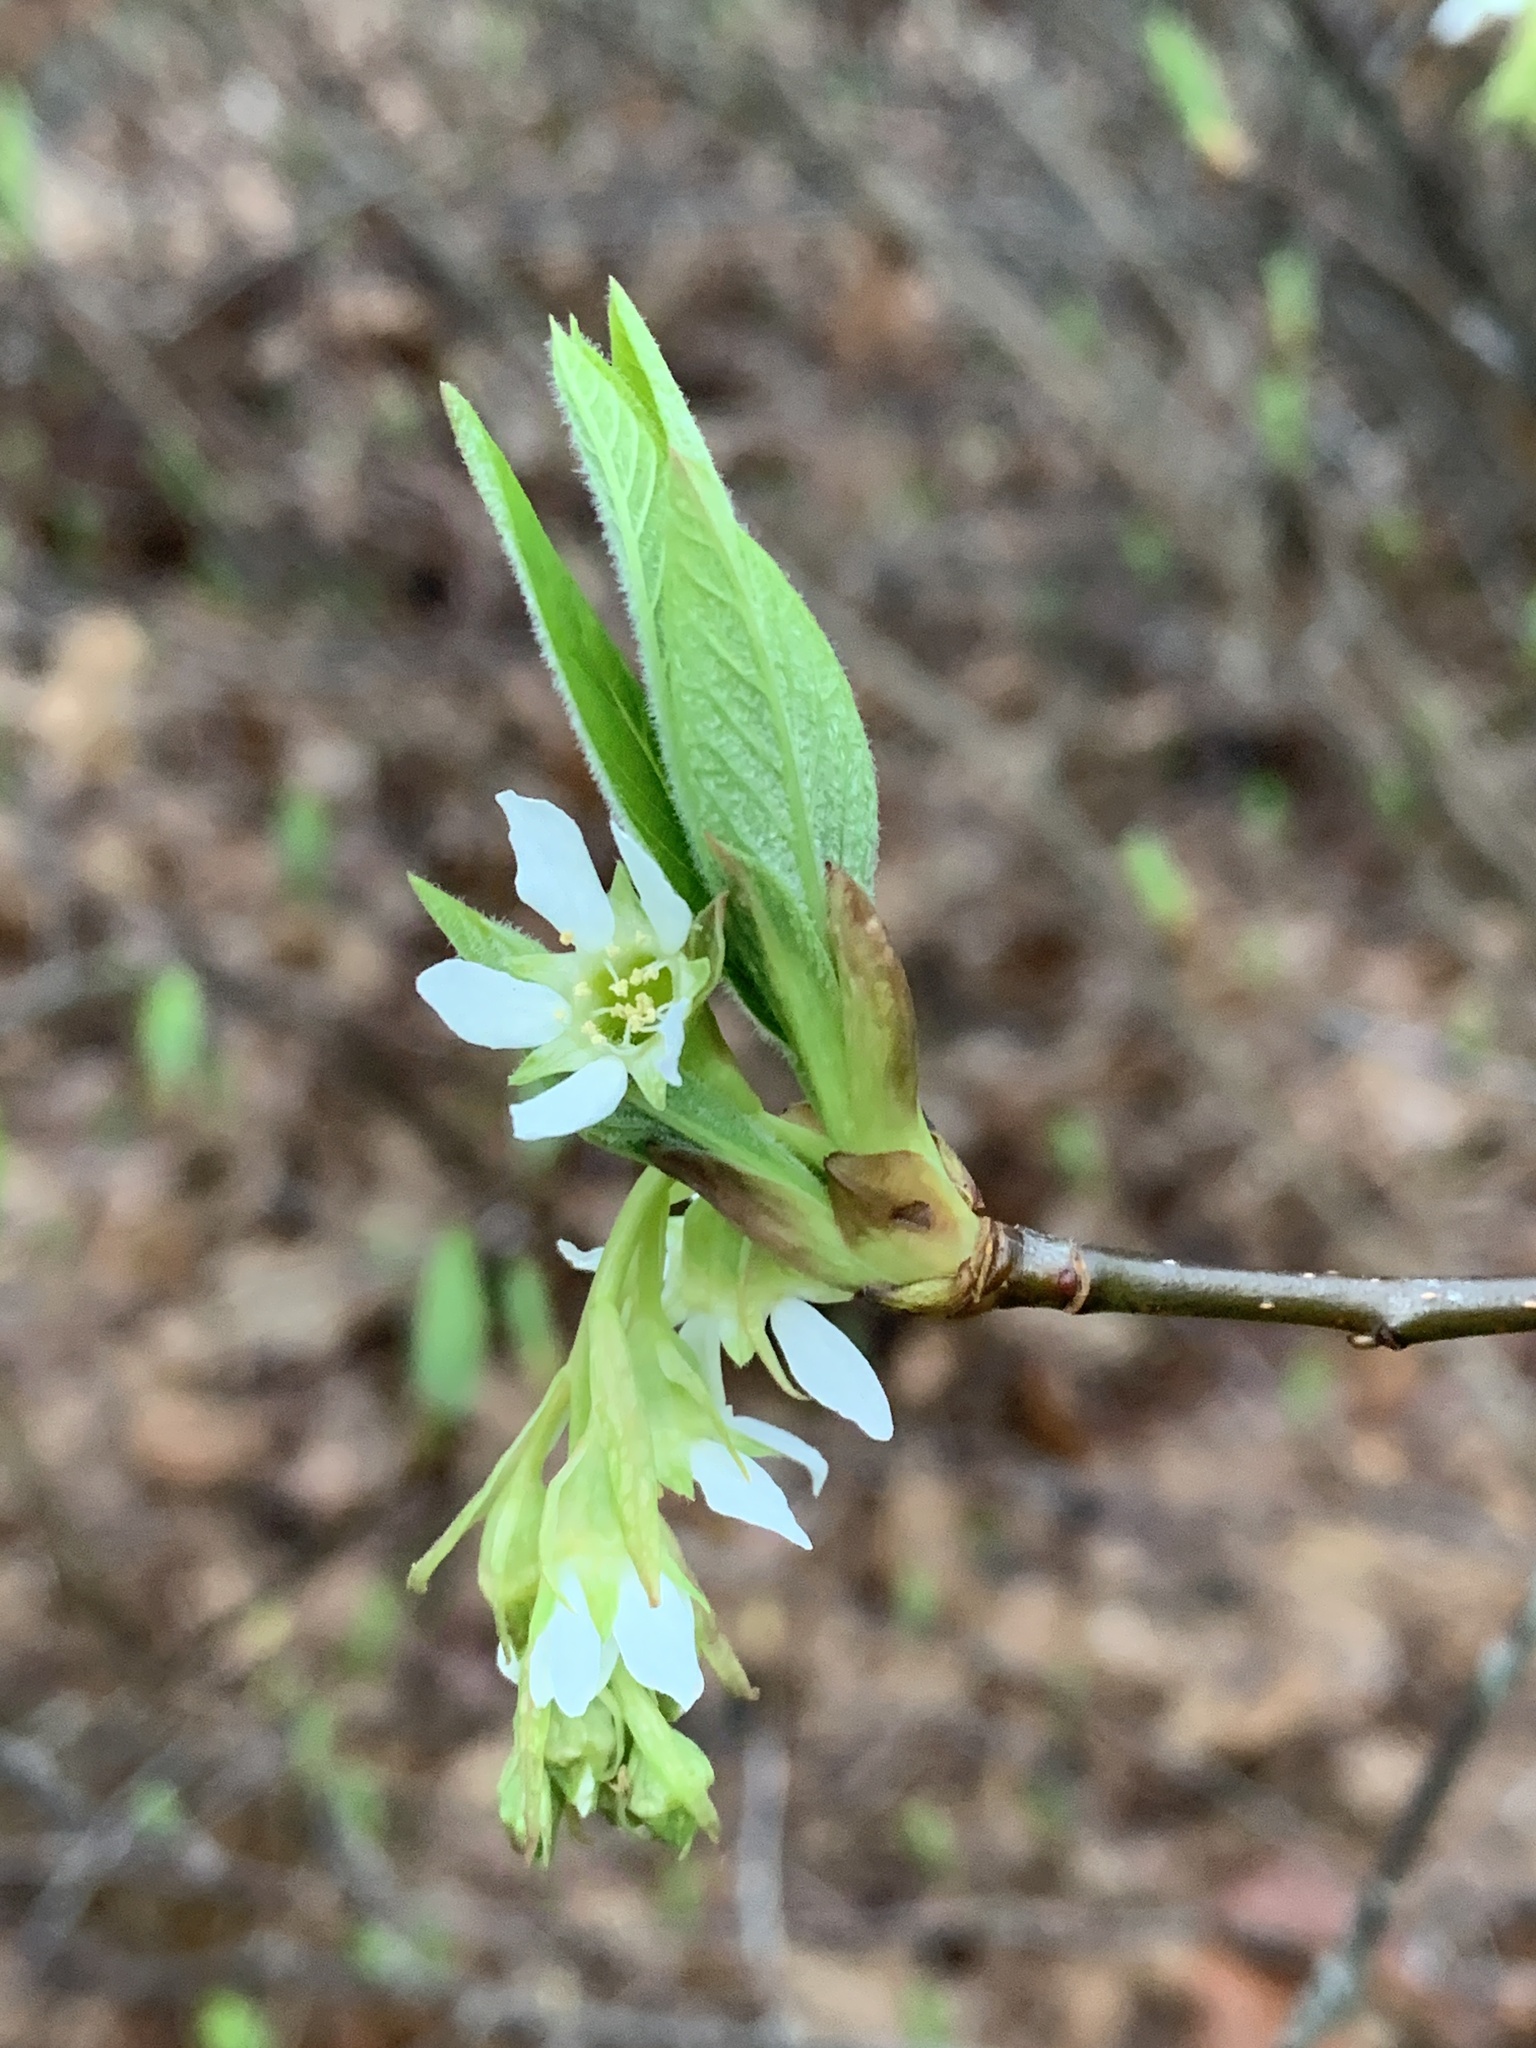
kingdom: Plantae
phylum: Tracheophyta
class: Magnoliopsida
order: Rosales
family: Rosaceae
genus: Oemleria
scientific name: Oemleria cerasiformis
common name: Osoberry
